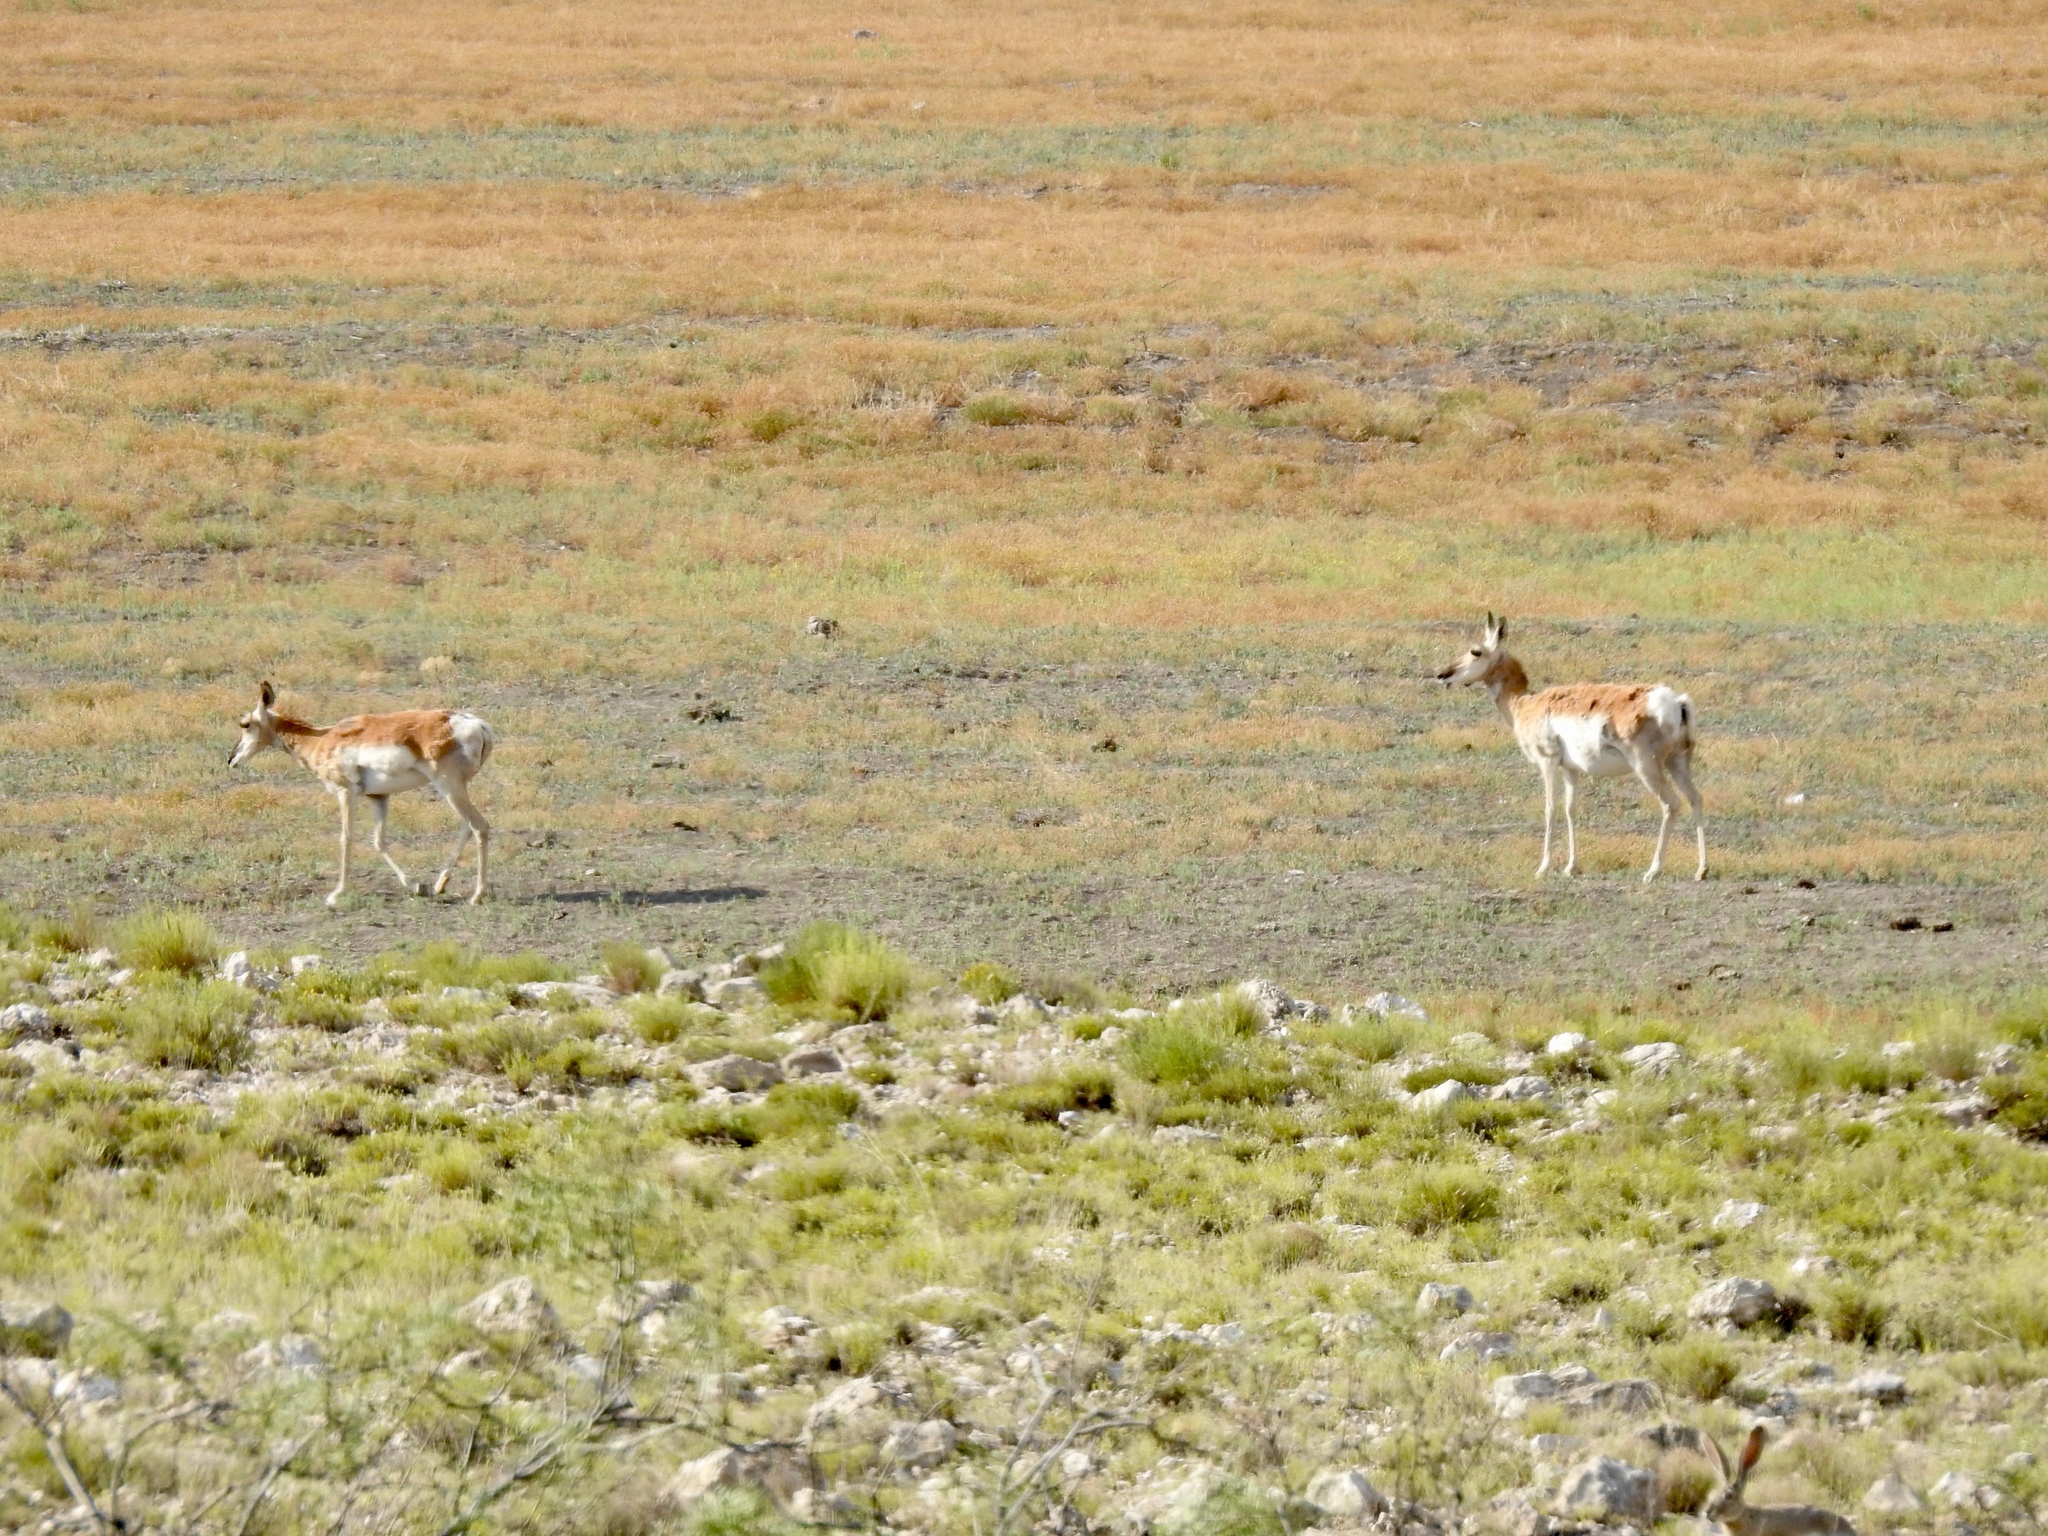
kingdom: Animalia
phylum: Chordata
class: Mammalia
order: Artiodactyla
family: Antilocapridae
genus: Antilocapra
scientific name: Antilocapra americana
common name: Pronghorn
